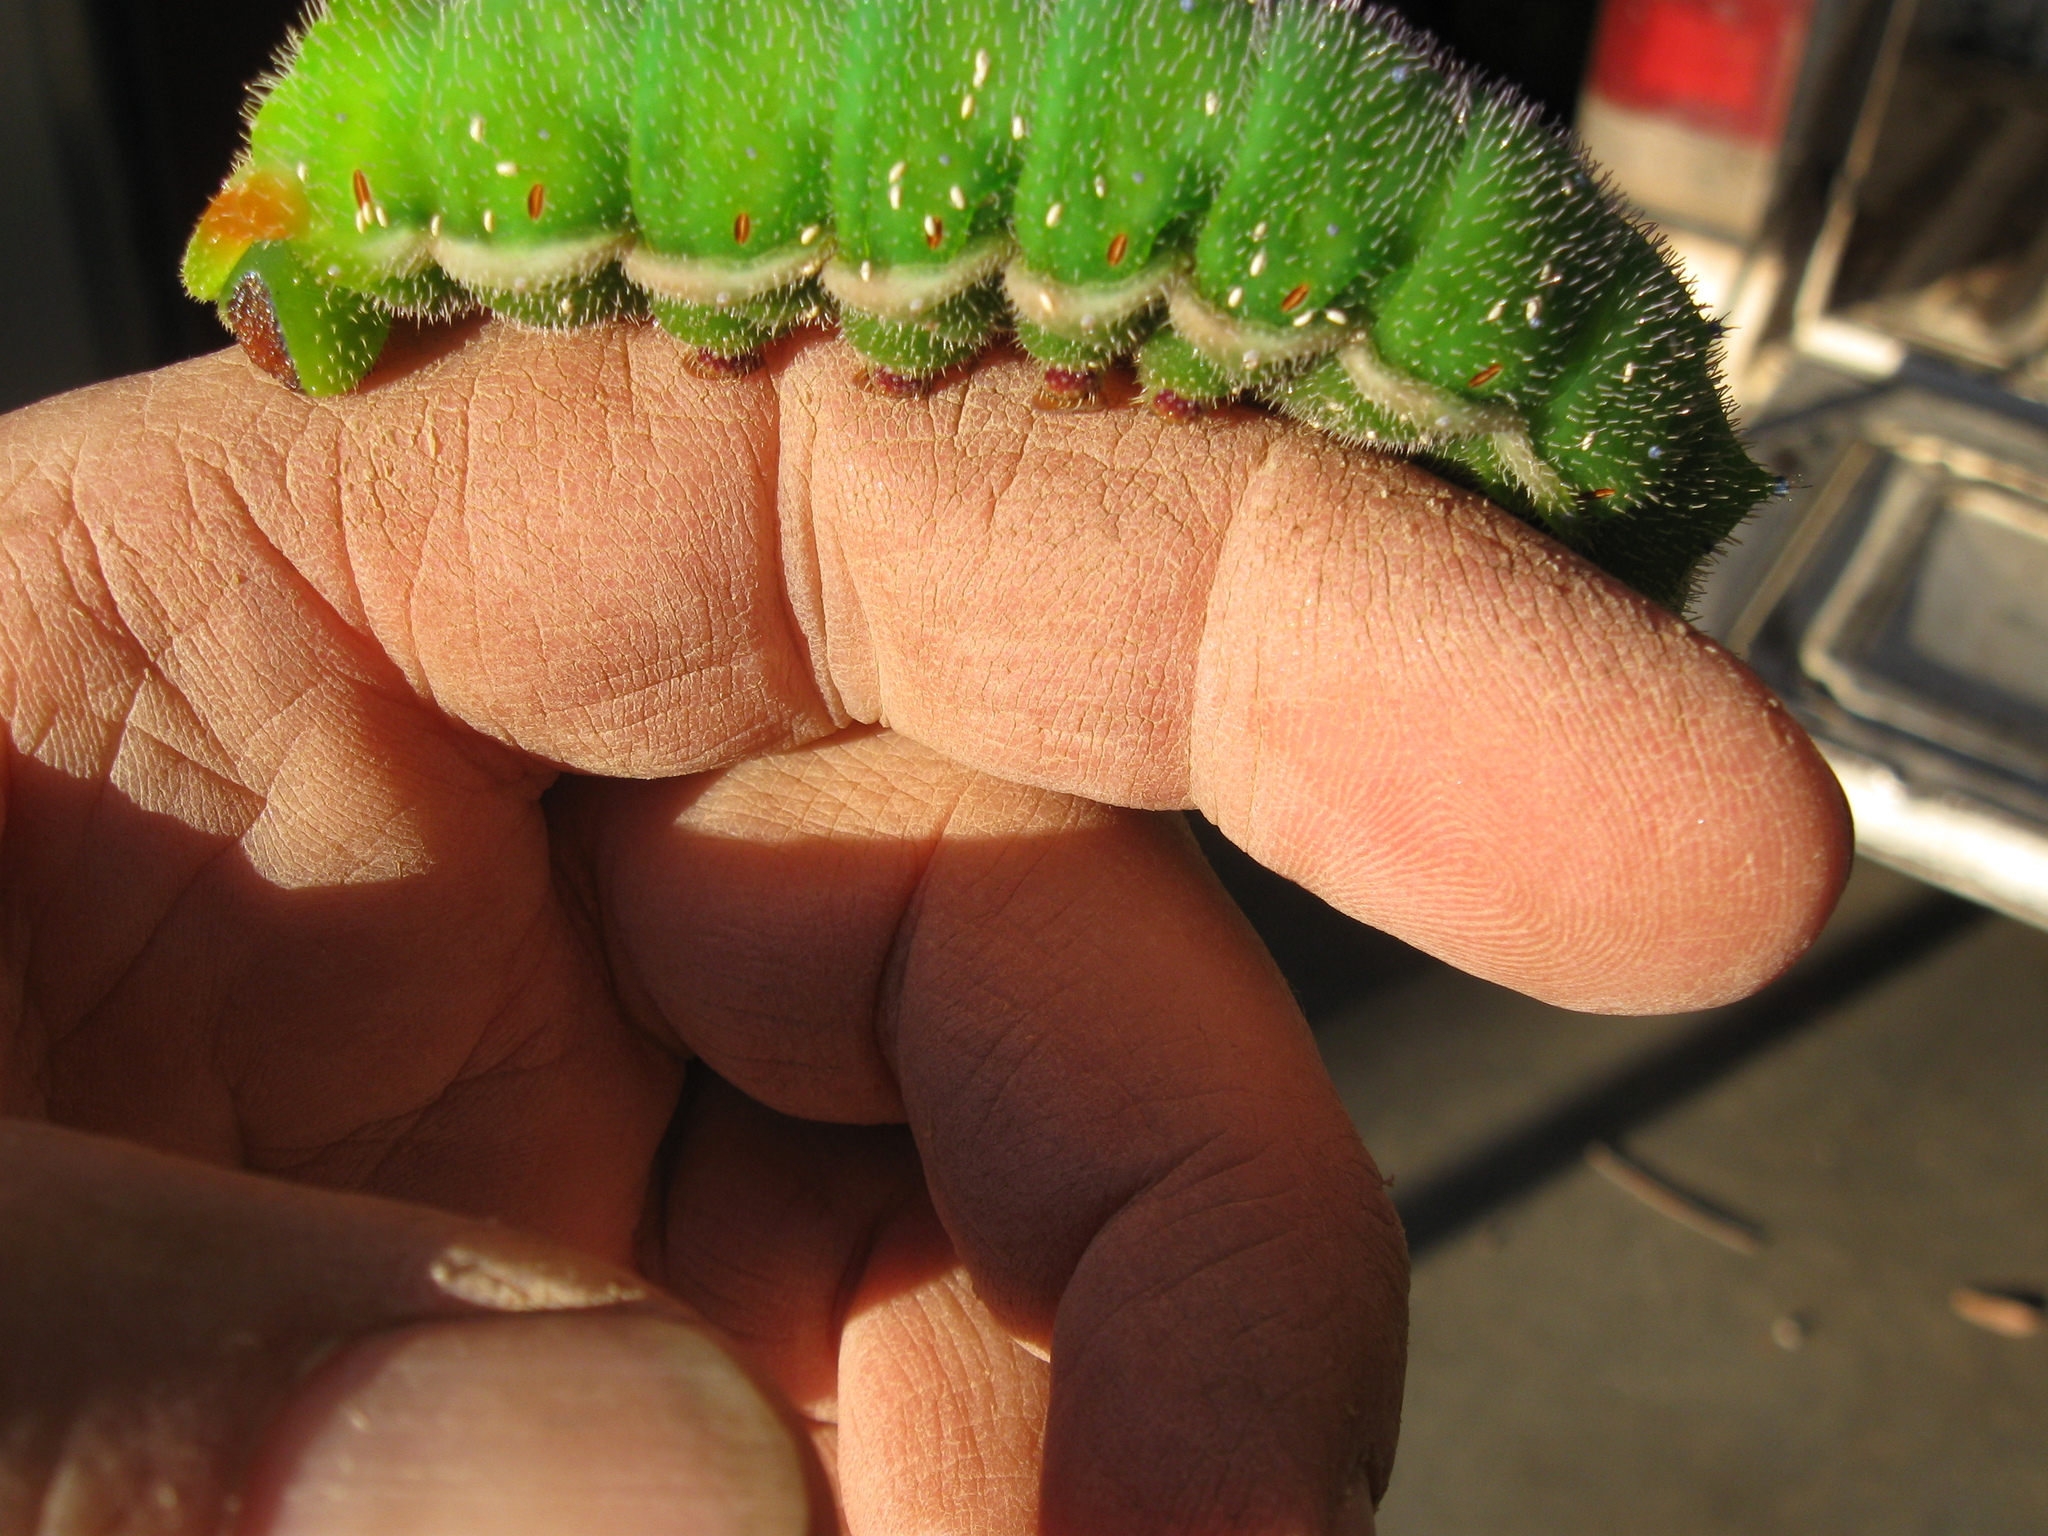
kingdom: Animalia
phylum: Arthropoda
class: Insecta
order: Lepidoptera
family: Saturniidae
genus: Opodiphthera
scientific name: Opodiphthera
